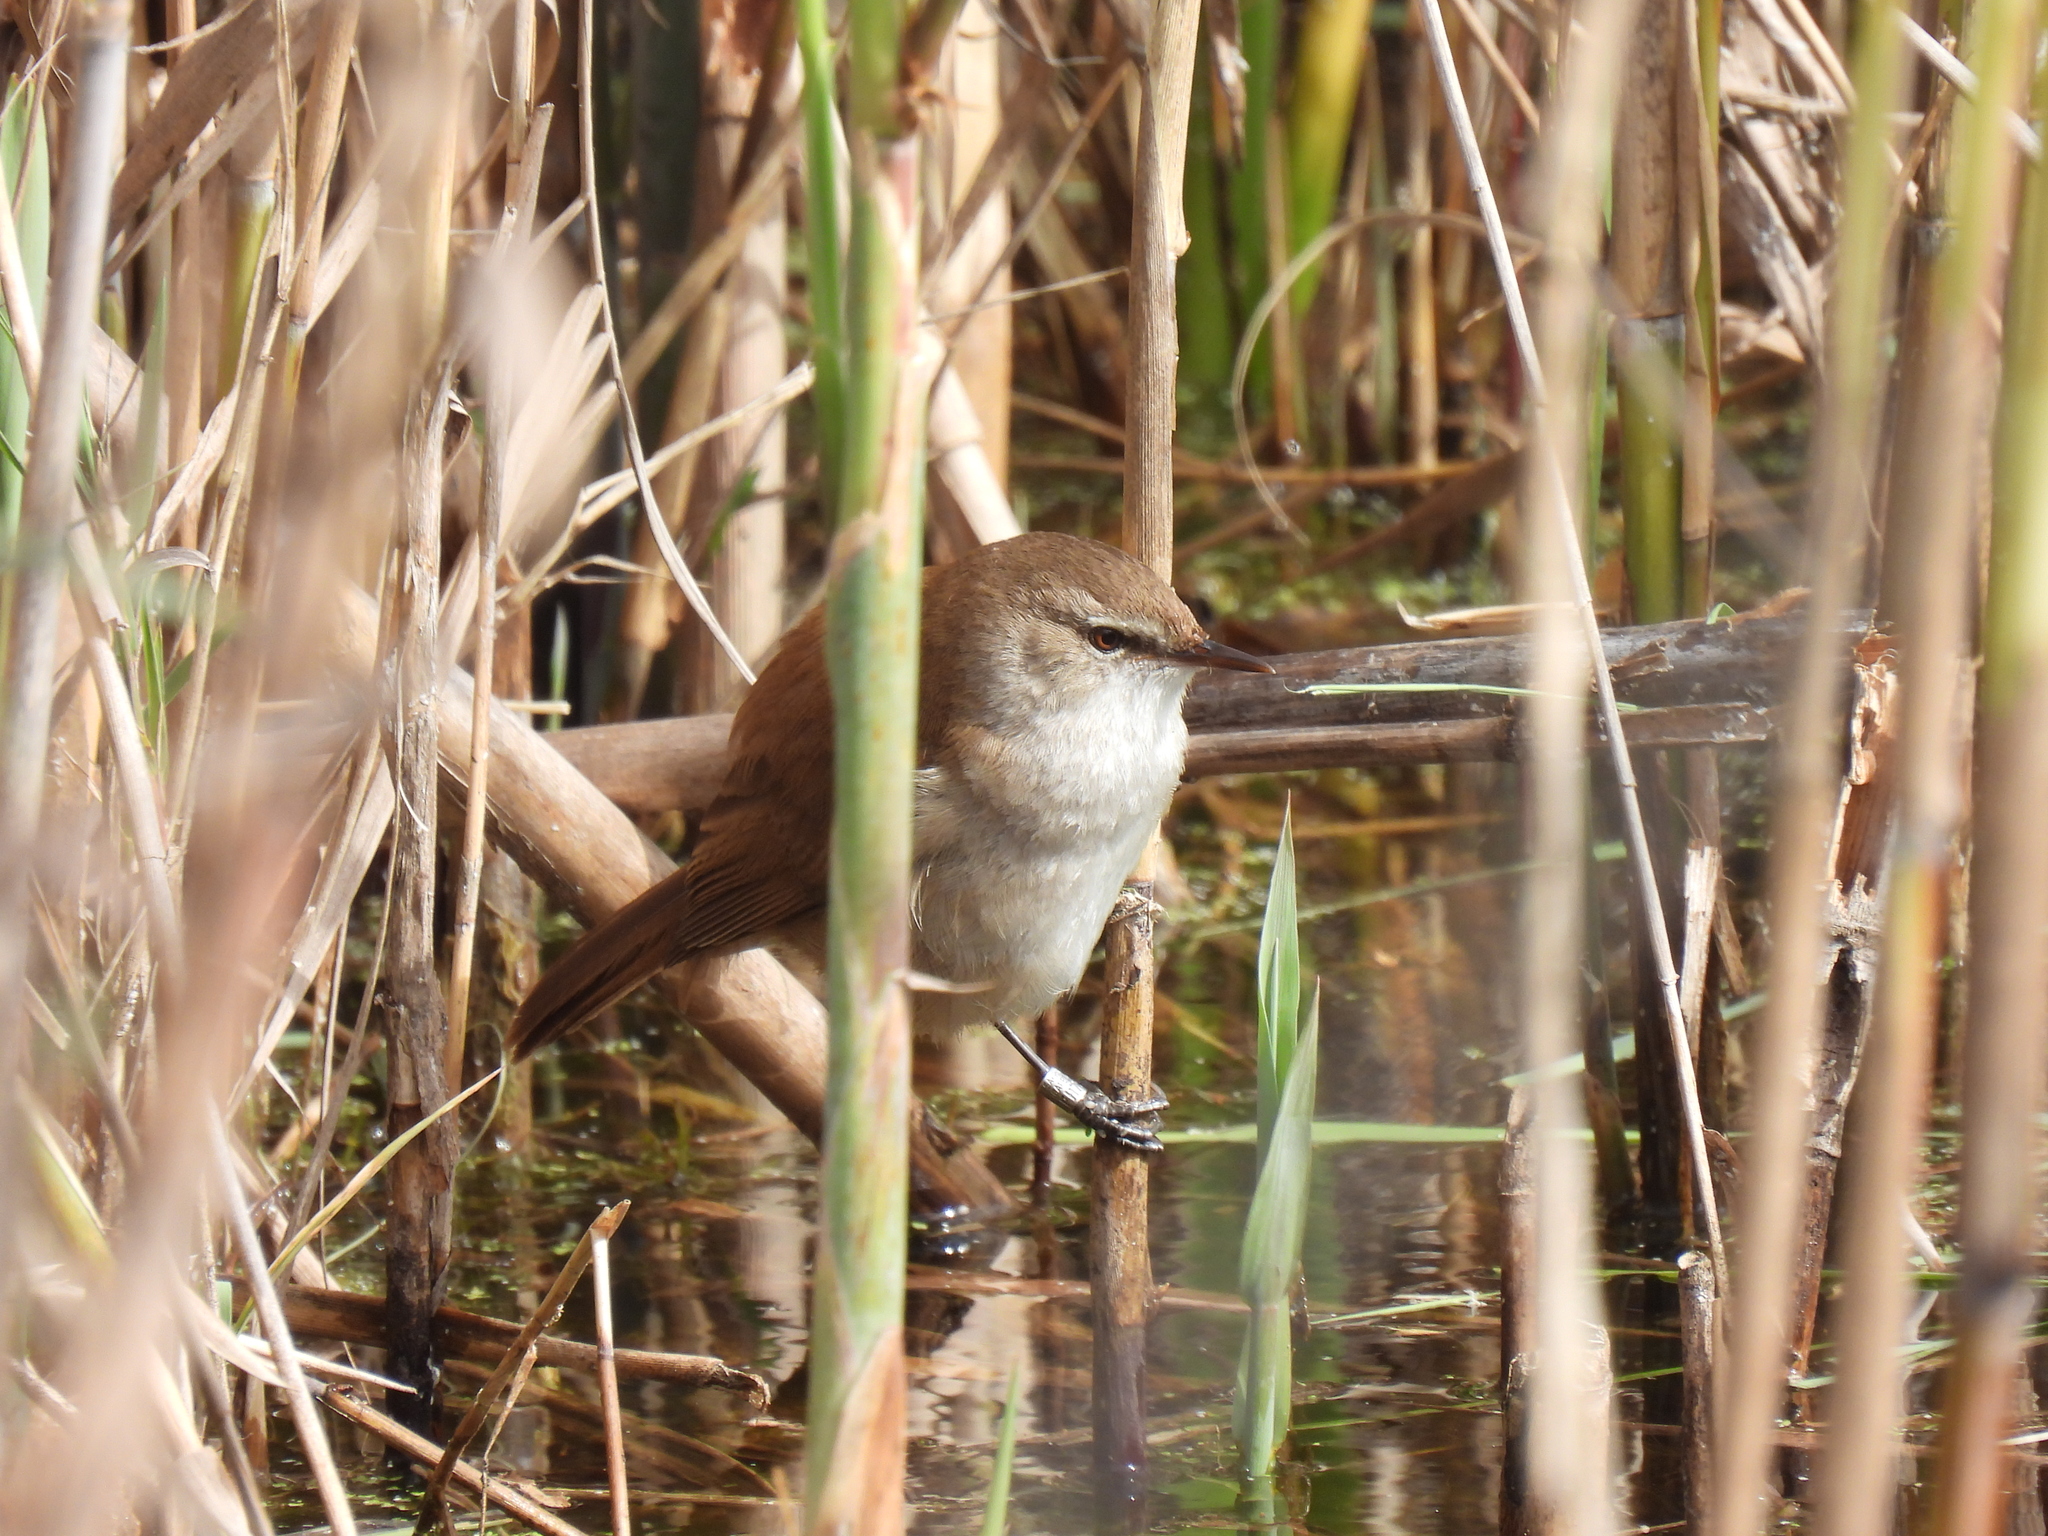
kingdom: Animalia
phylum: Chordata
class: Aves
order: Passeriformes
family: Acrocephalidae
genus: Acrocephalus
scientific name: Acrocephalus gracilirostris
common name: Lesser swamp warbler
